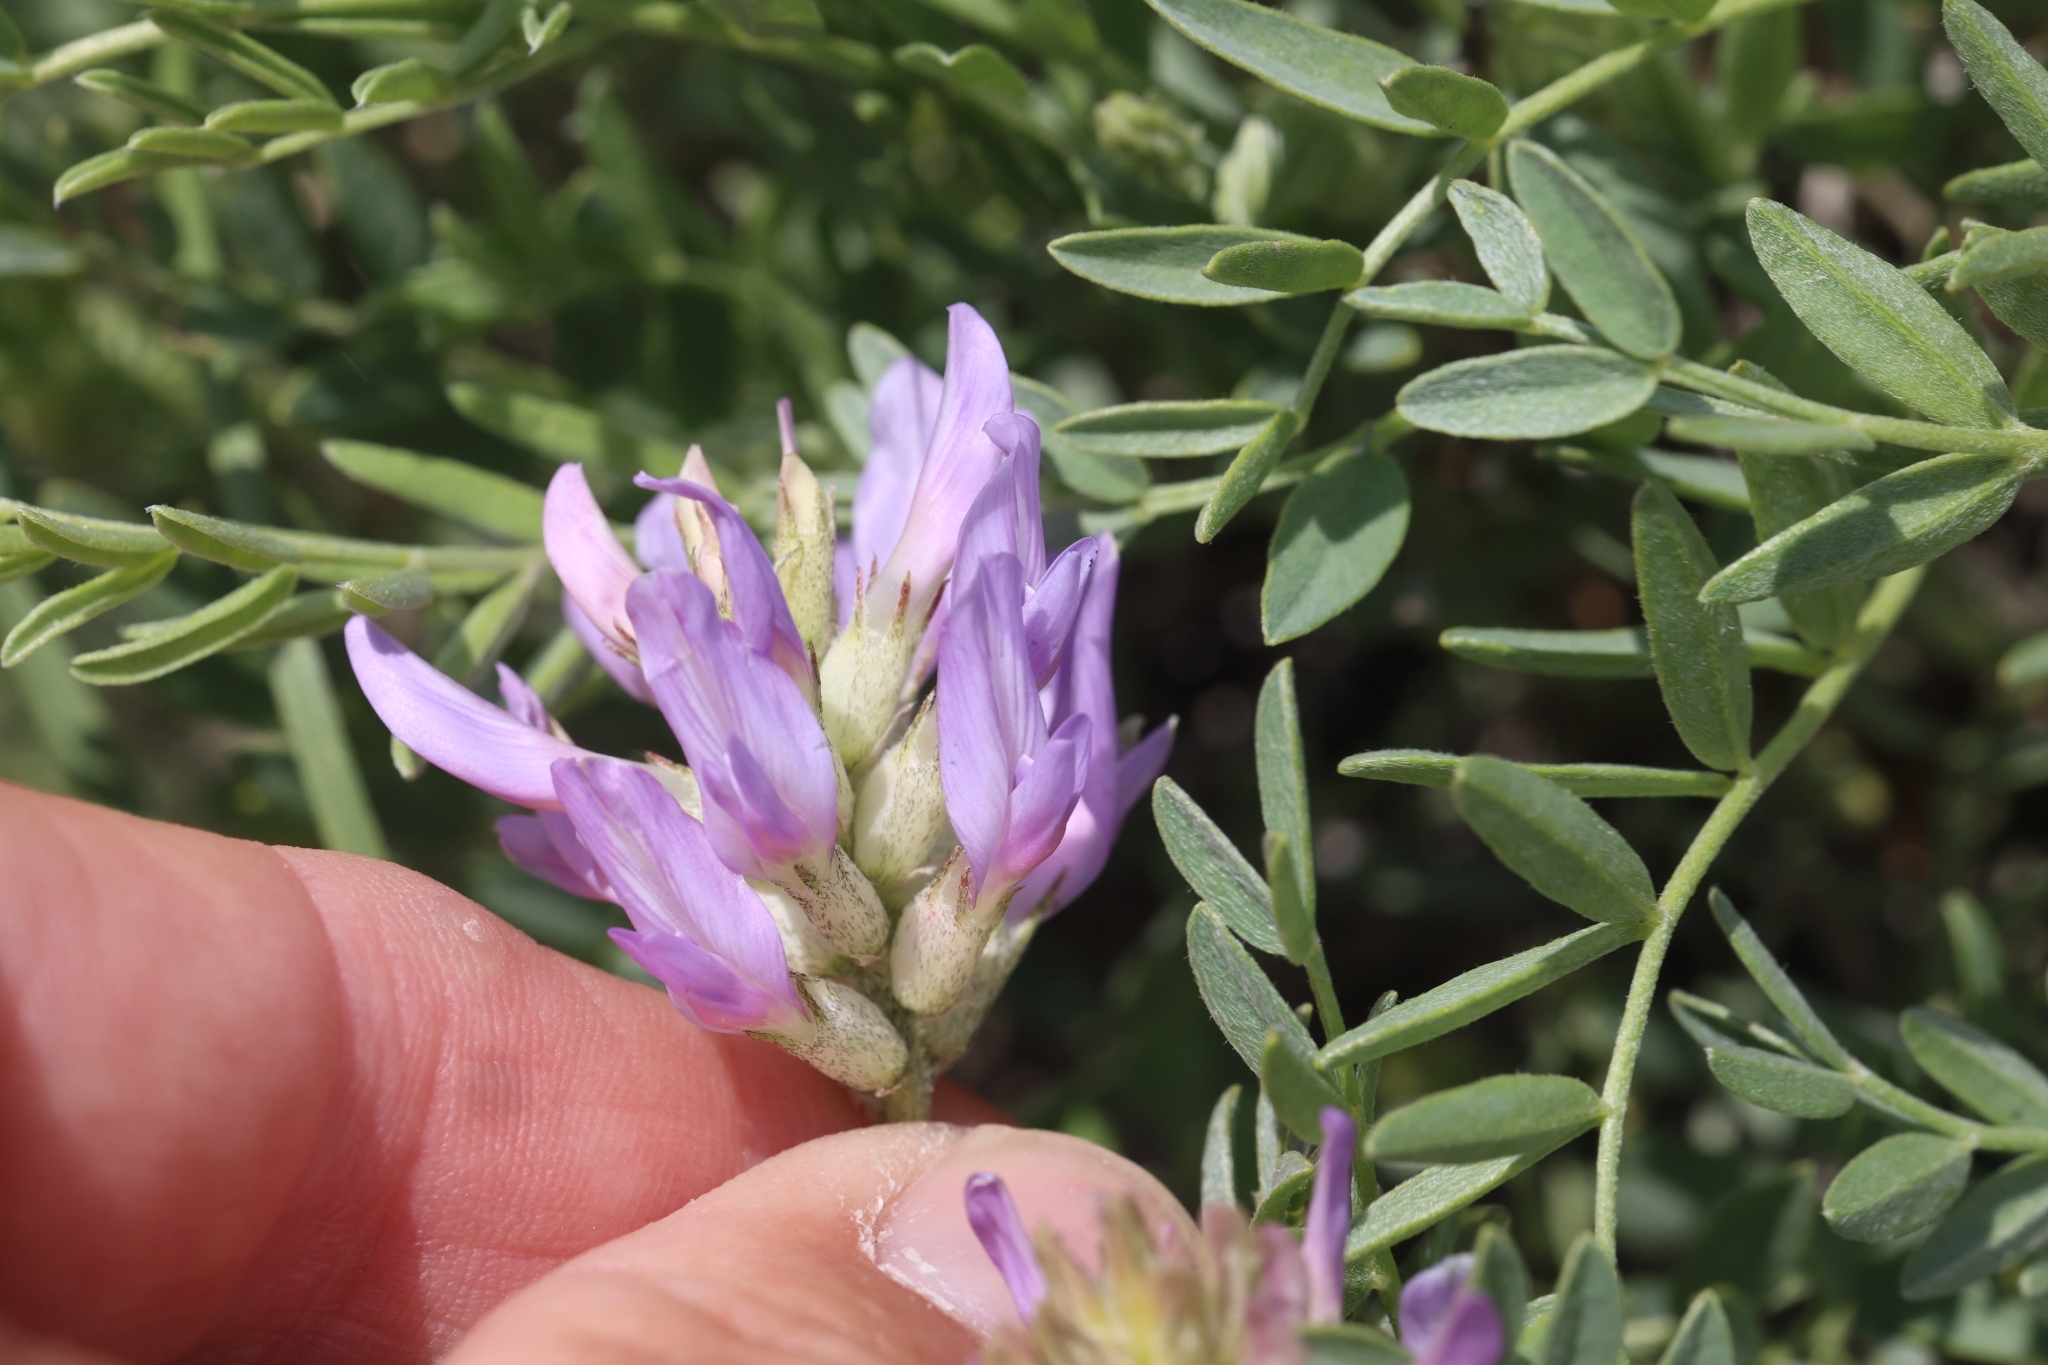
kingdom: Plantae
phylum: Tracheophyta
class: Magnoliopsida
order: Fabales
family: Fabaceae
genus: Astragalus
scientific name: Astragalus laxmannii
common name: Laxmann's milk-vetch
